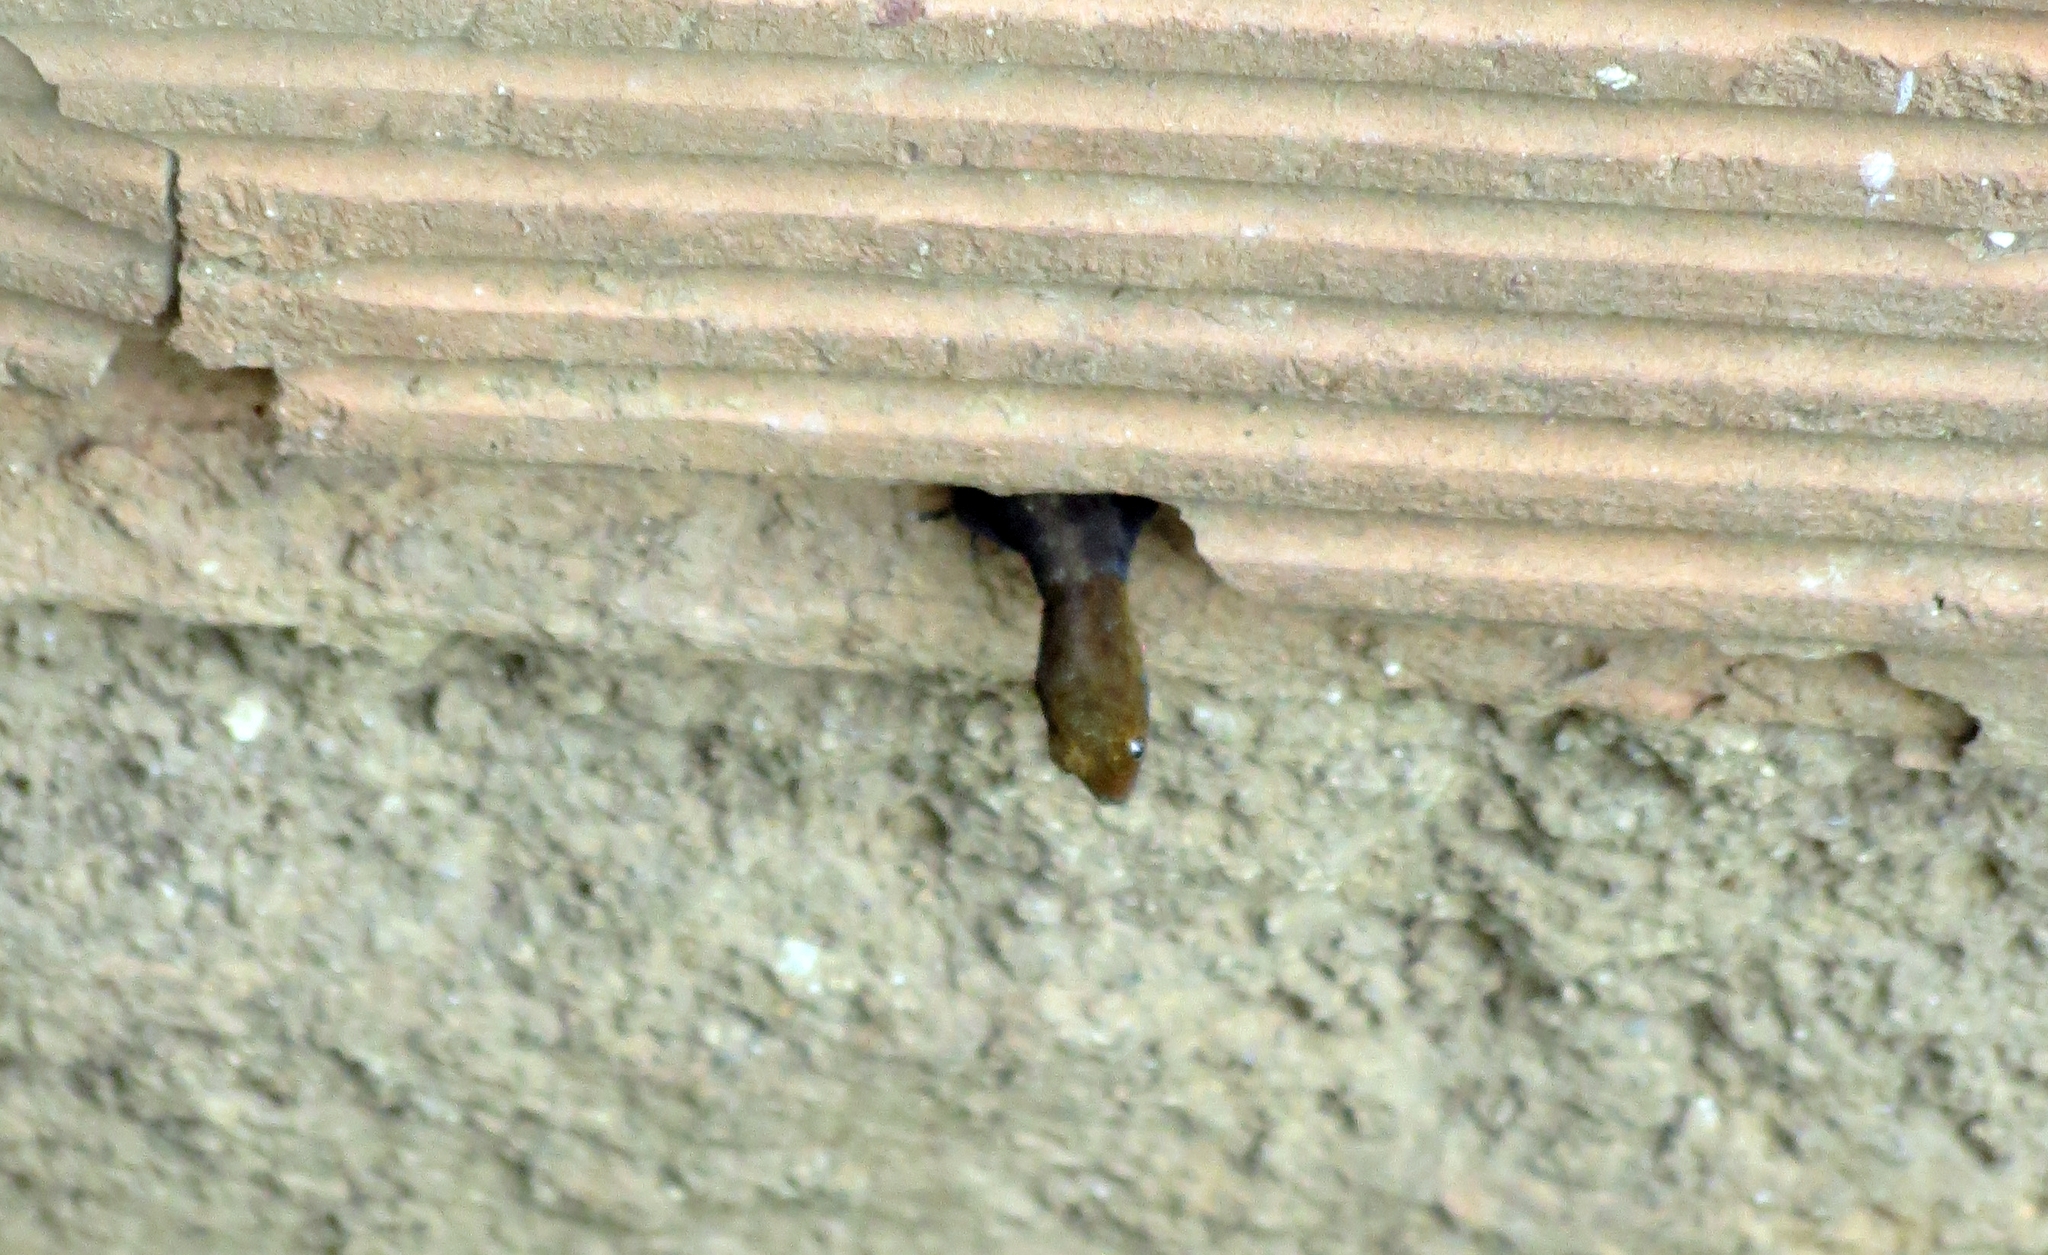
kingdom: Animalia
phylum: Chordata
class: Squamata
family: Sphaerodactylidae
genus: Gonatodes
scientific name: Gonatodes albogularis
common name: Yellow-headed gecko
